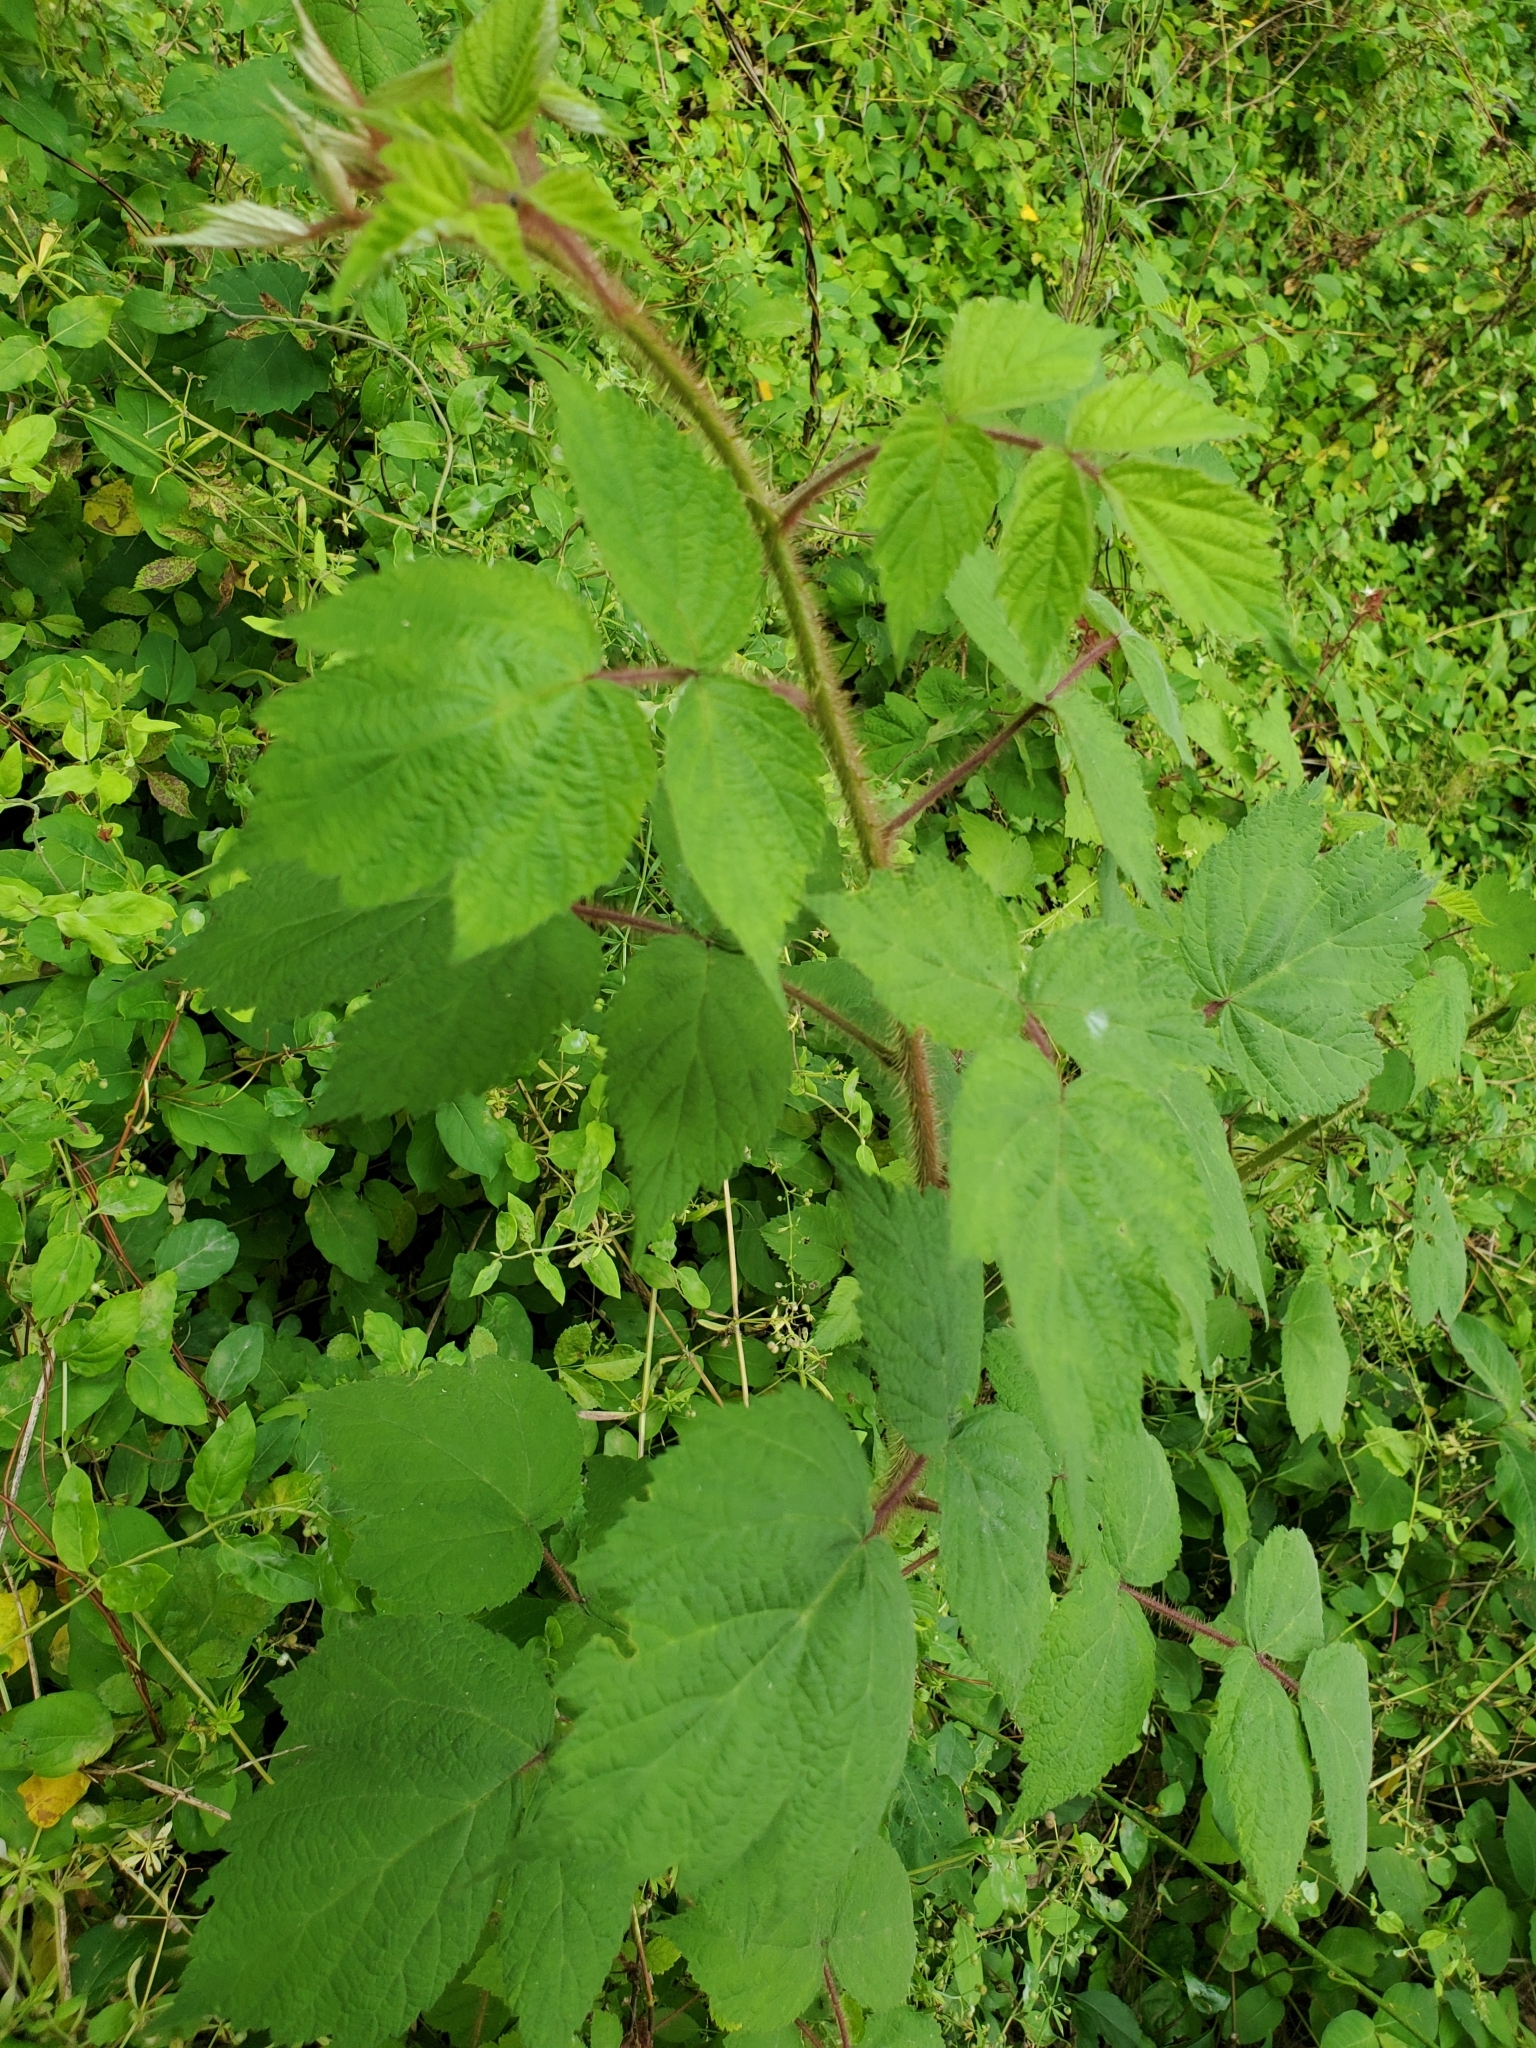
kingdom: Plantae
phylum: Tracheophyta
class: Magnoliopsida
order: Rosales
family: Rosaceae
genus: Rubus
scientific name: Rubus phoenicolasius
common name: Japanese wineberry
